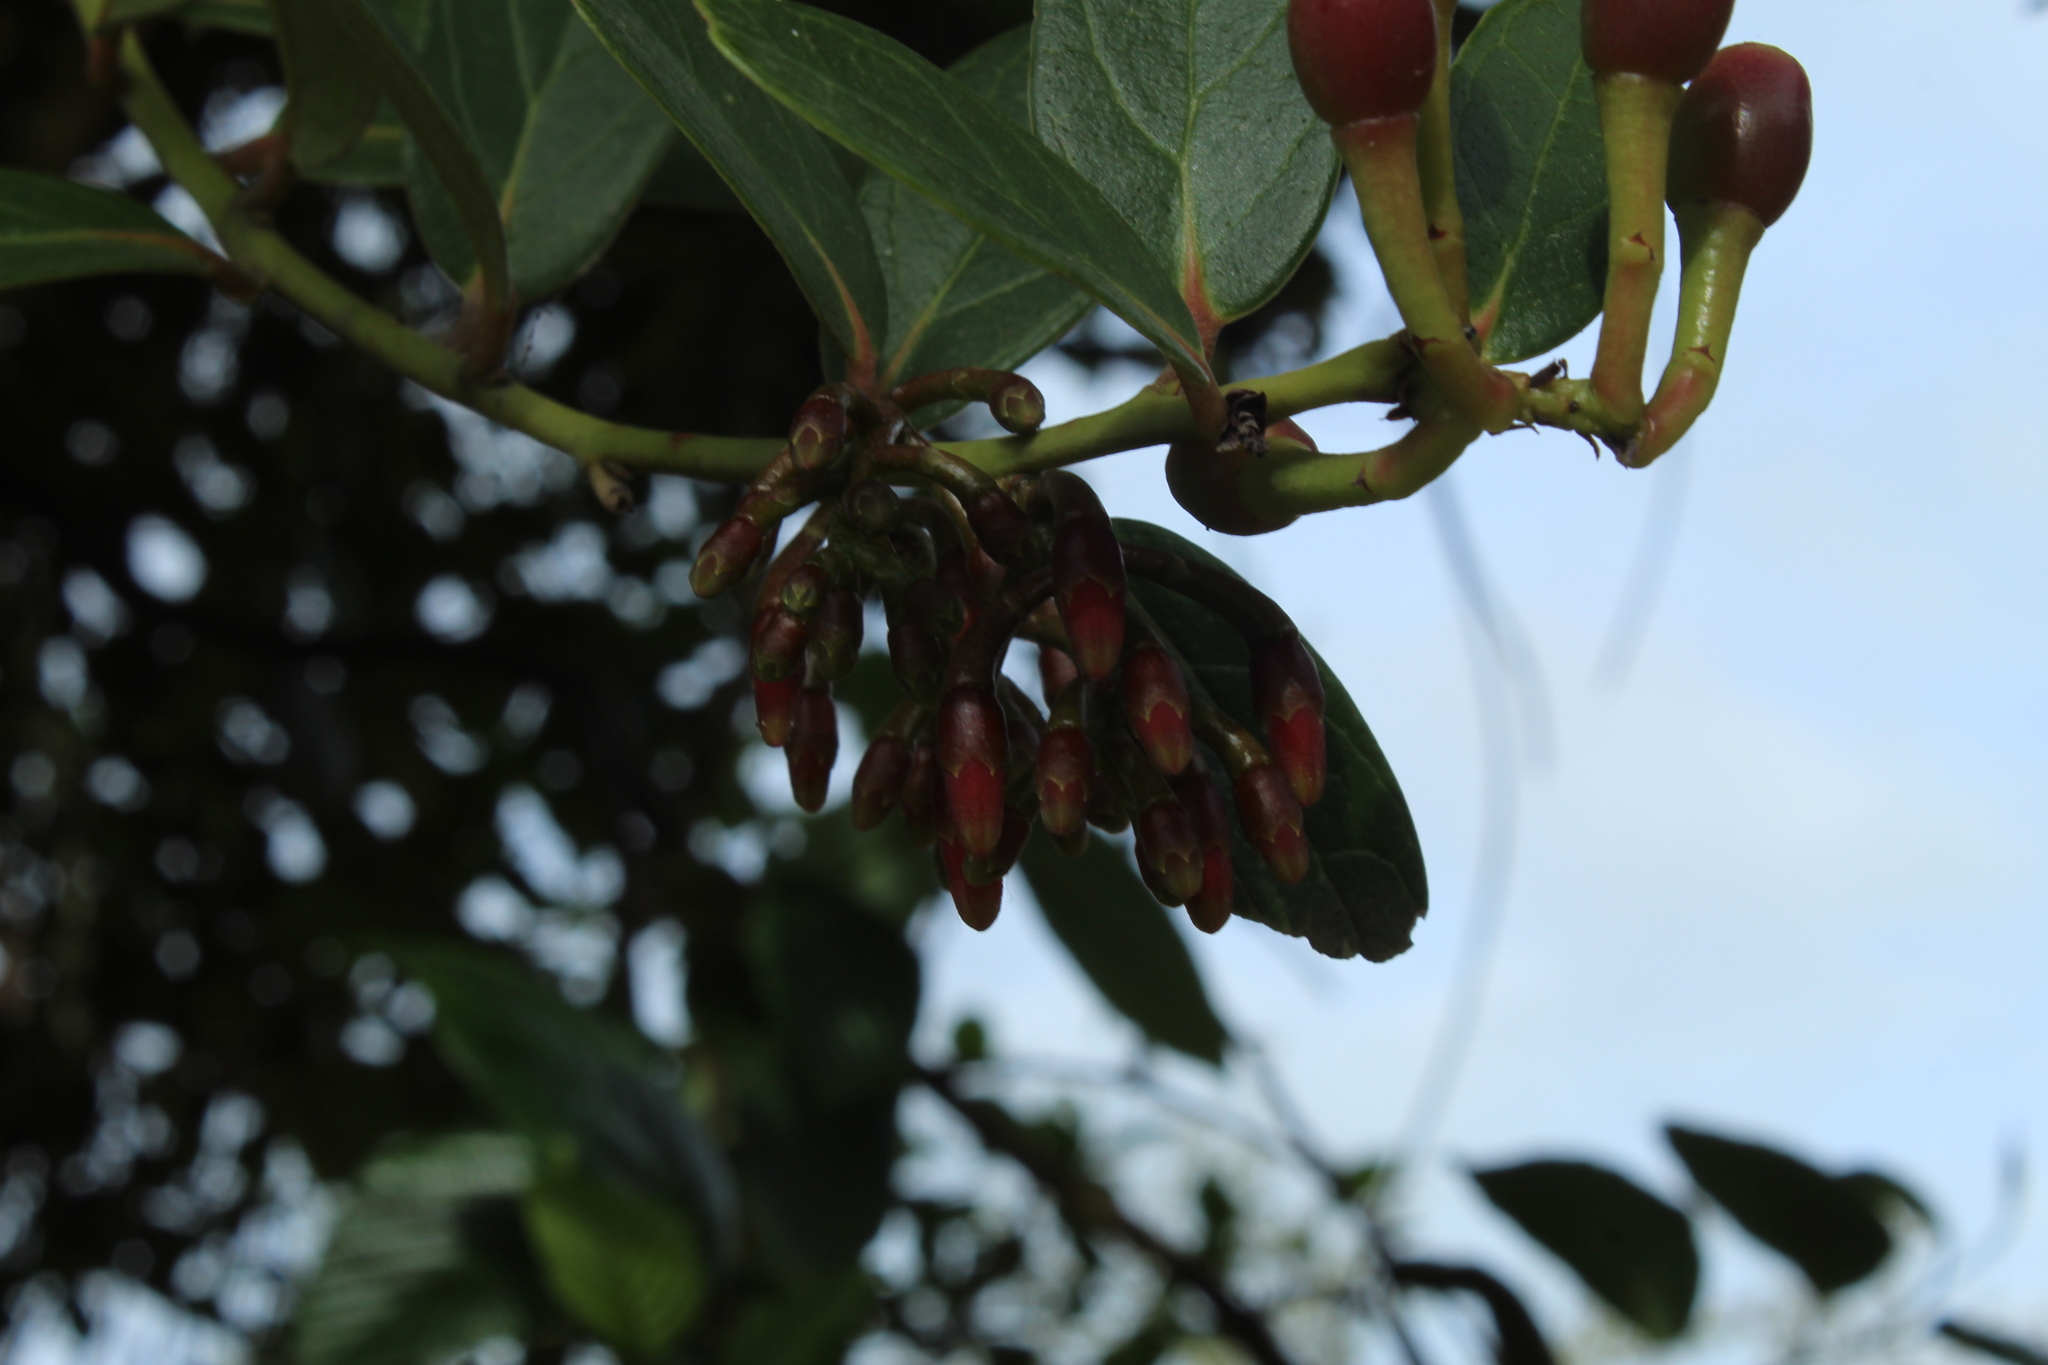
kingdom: Plantae
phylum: Tracheophyta
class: Magnoliopsida
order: Ericales
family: Ericaceae
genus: Macleania
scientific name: Macleania rupestris
